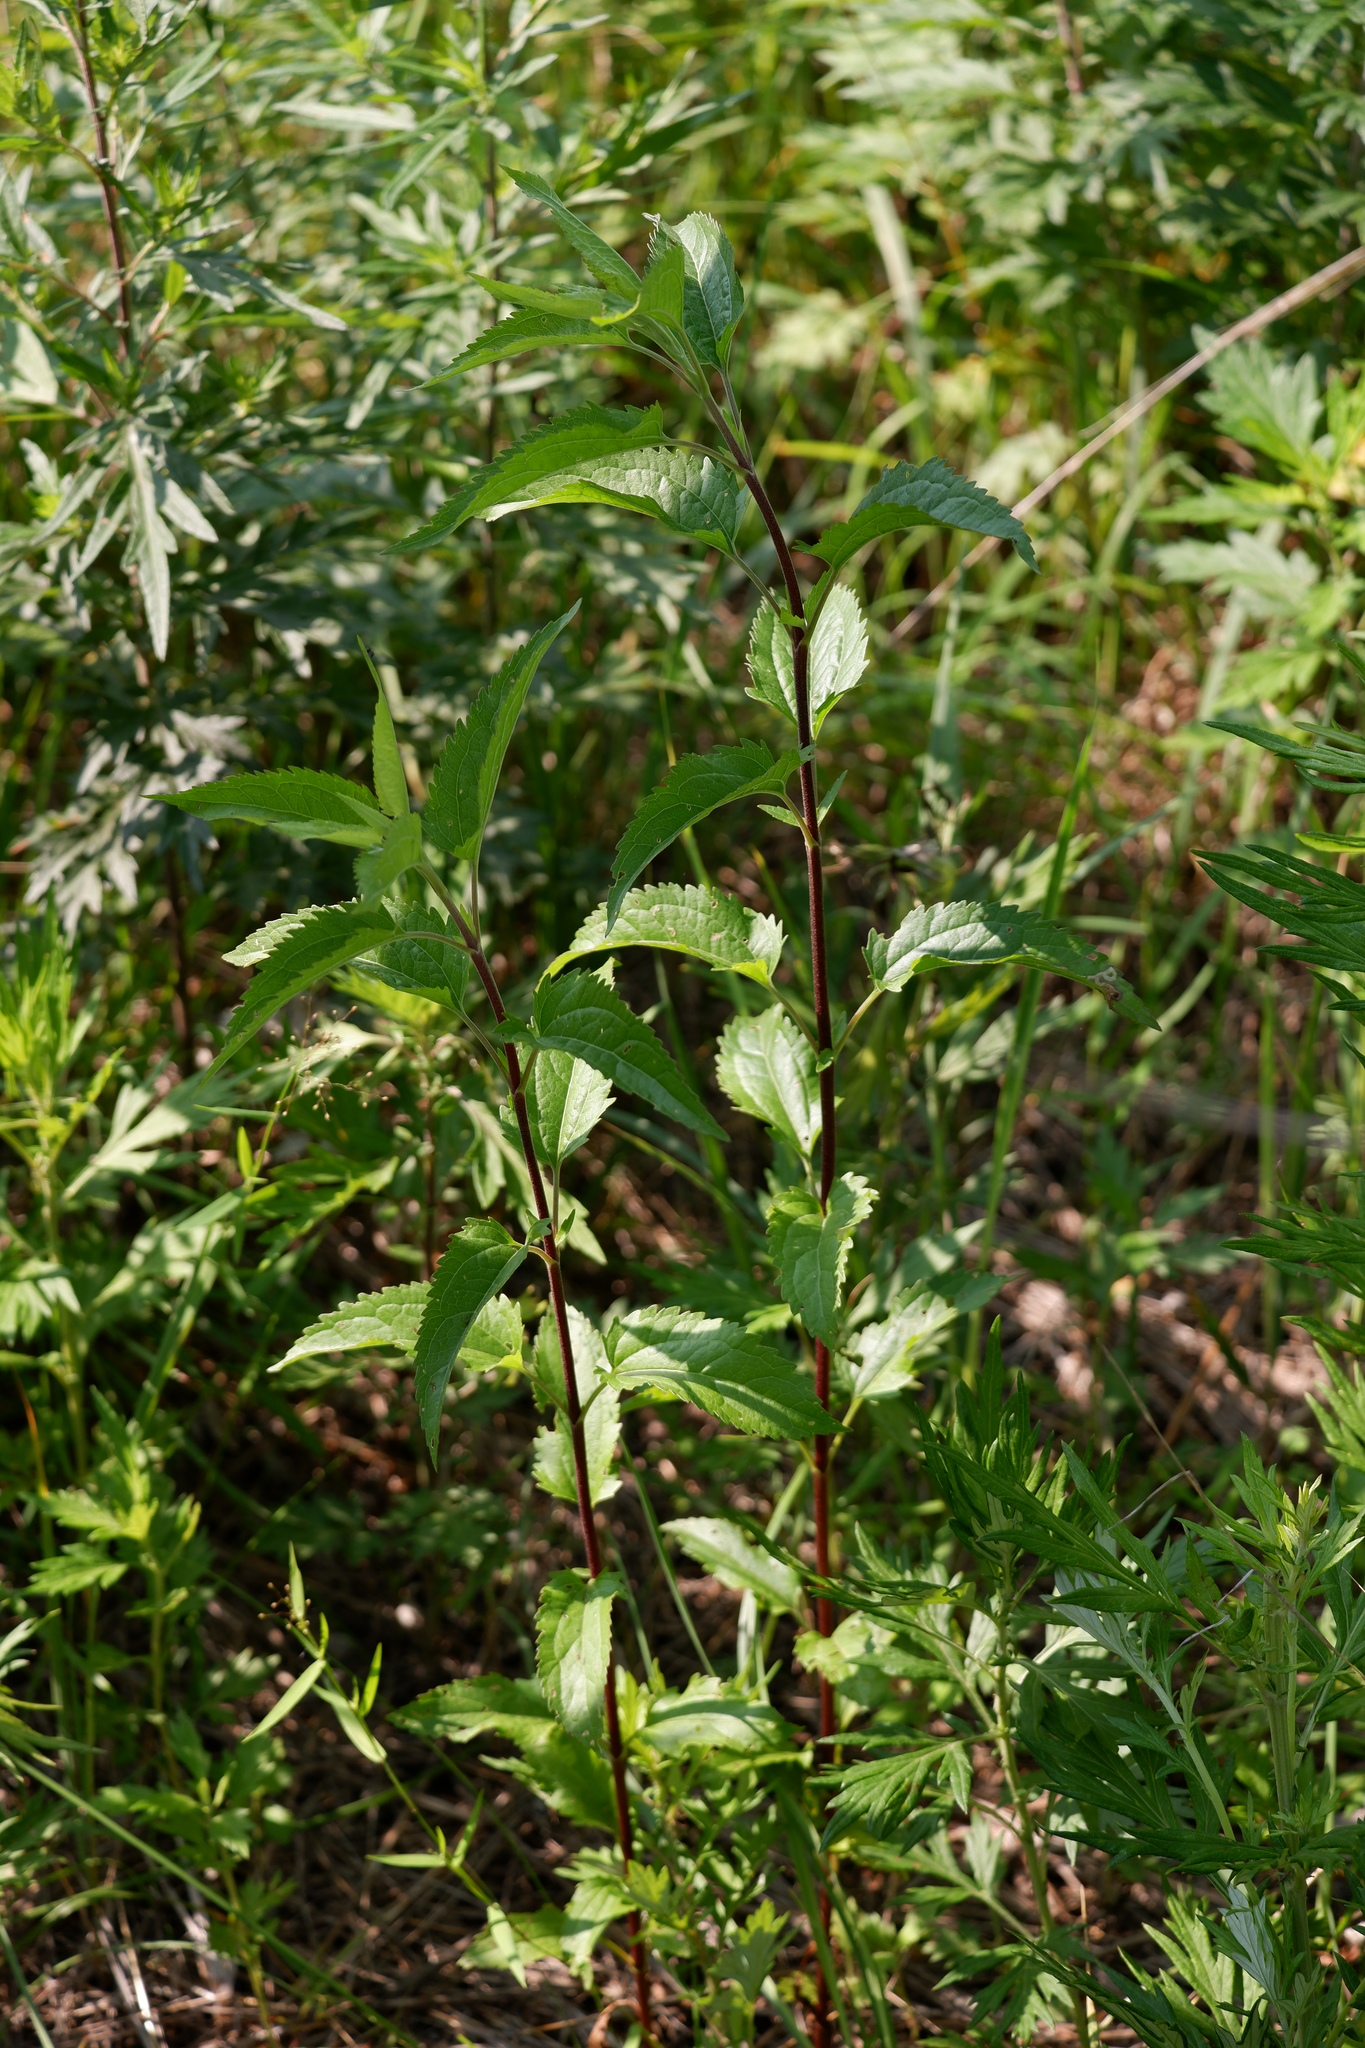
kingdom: Plantae
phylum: Tracheophyta
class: Magnoliopsida
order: Asterales
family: Asteraceae
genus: Eupatorium
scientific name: Eupatorium serotinum
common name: Late boneset
